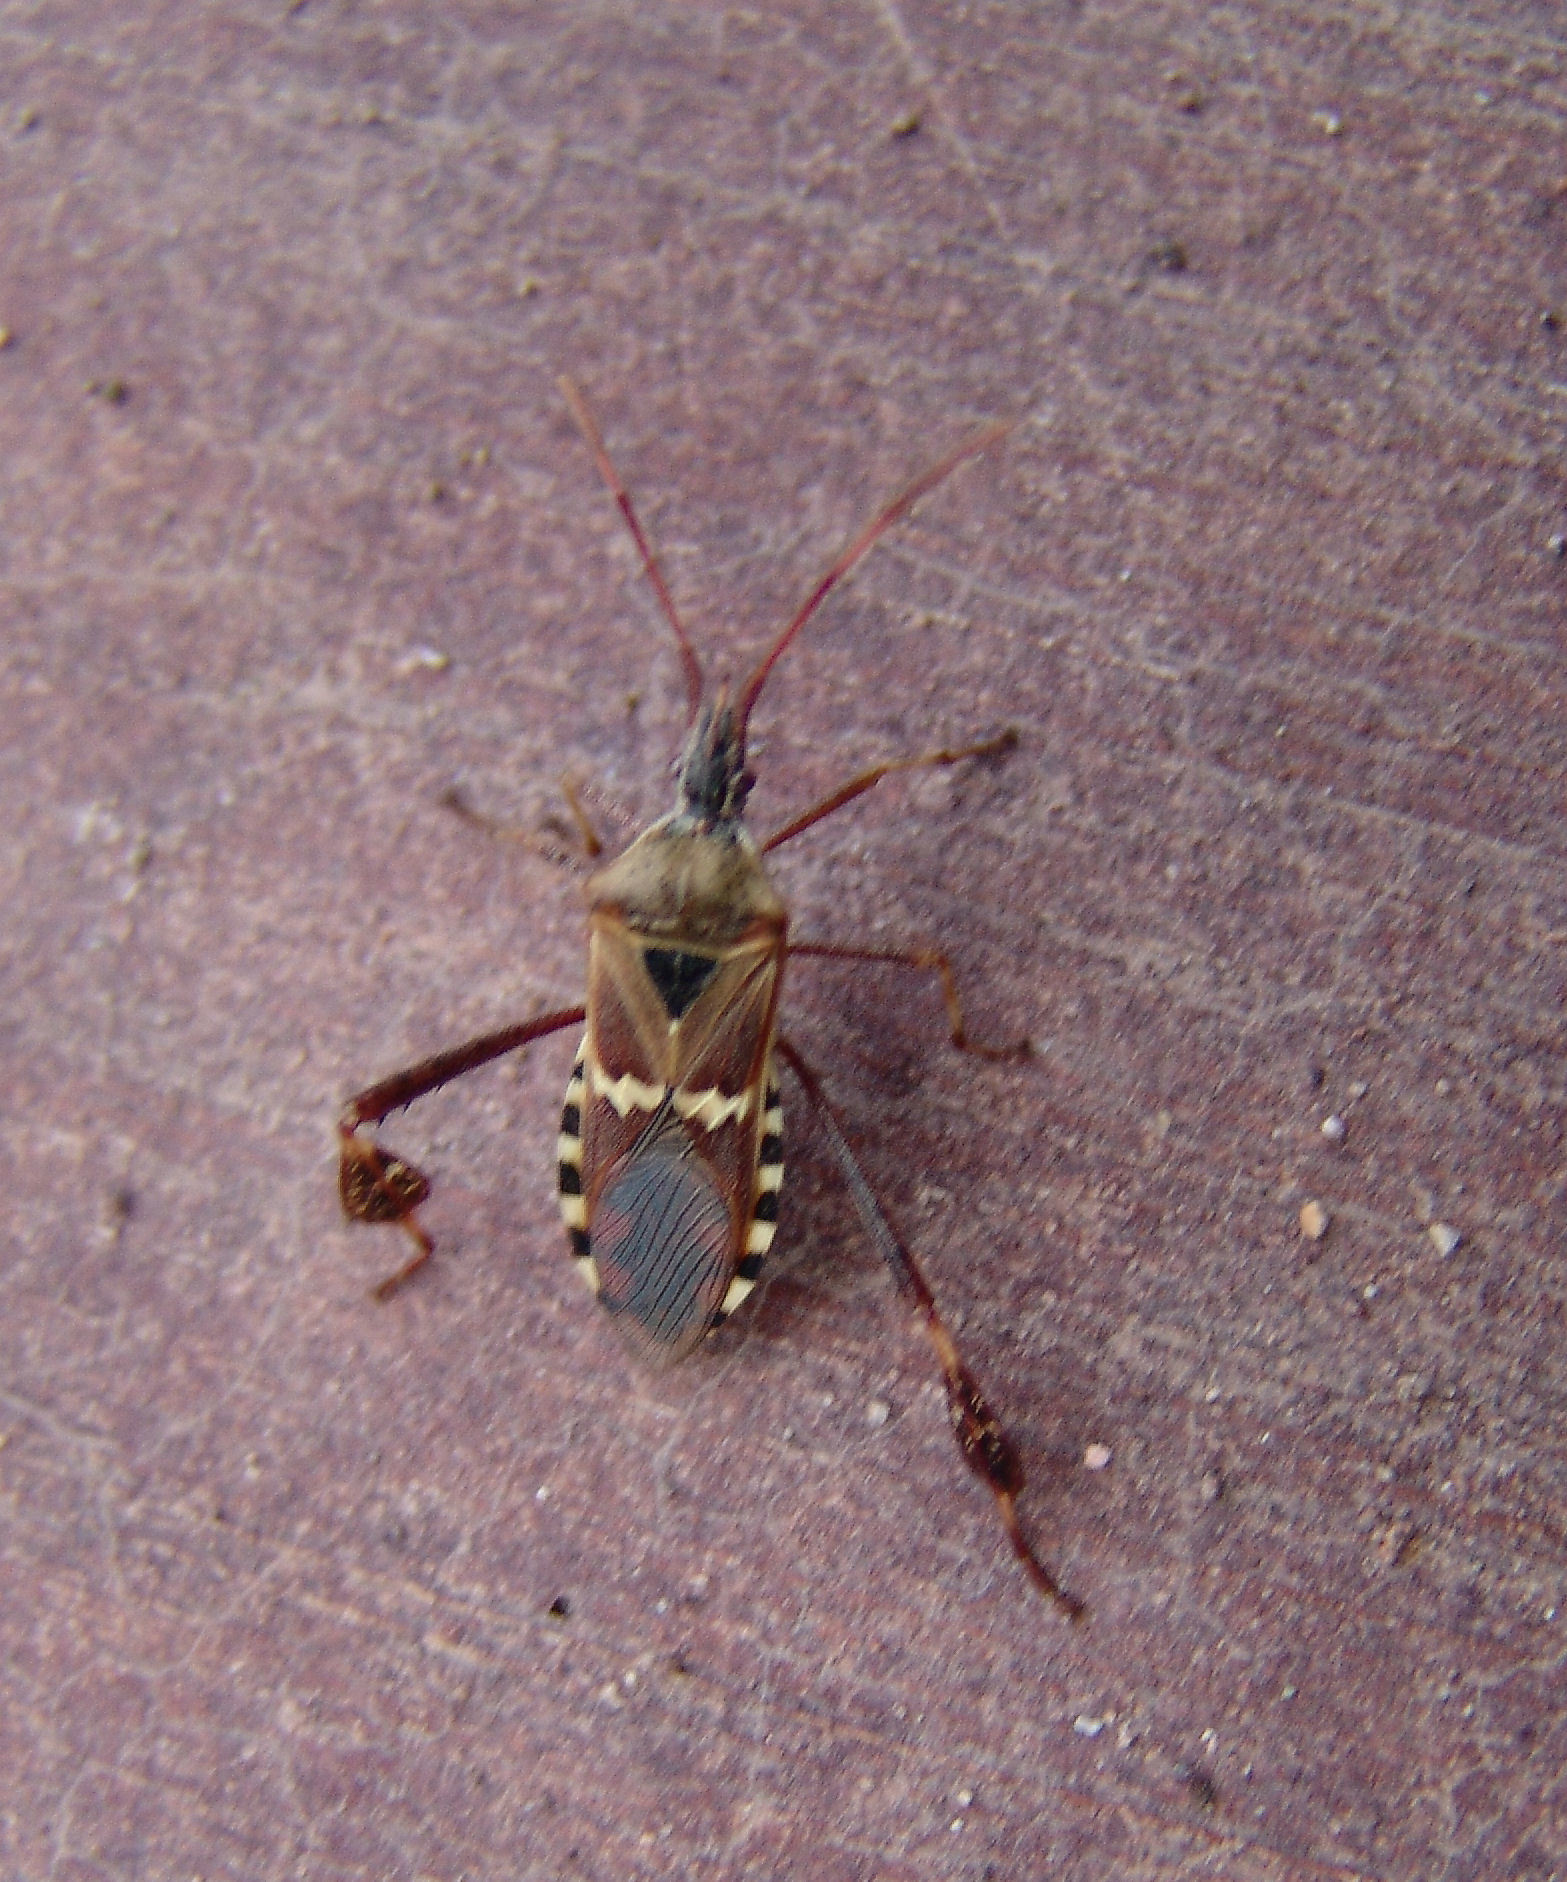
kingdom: Animalia
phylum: Arthropoda
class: Insecta
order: Hemiptera
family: Coreidae
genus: Leptoglossus
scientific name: Leptoglossus clypealis
